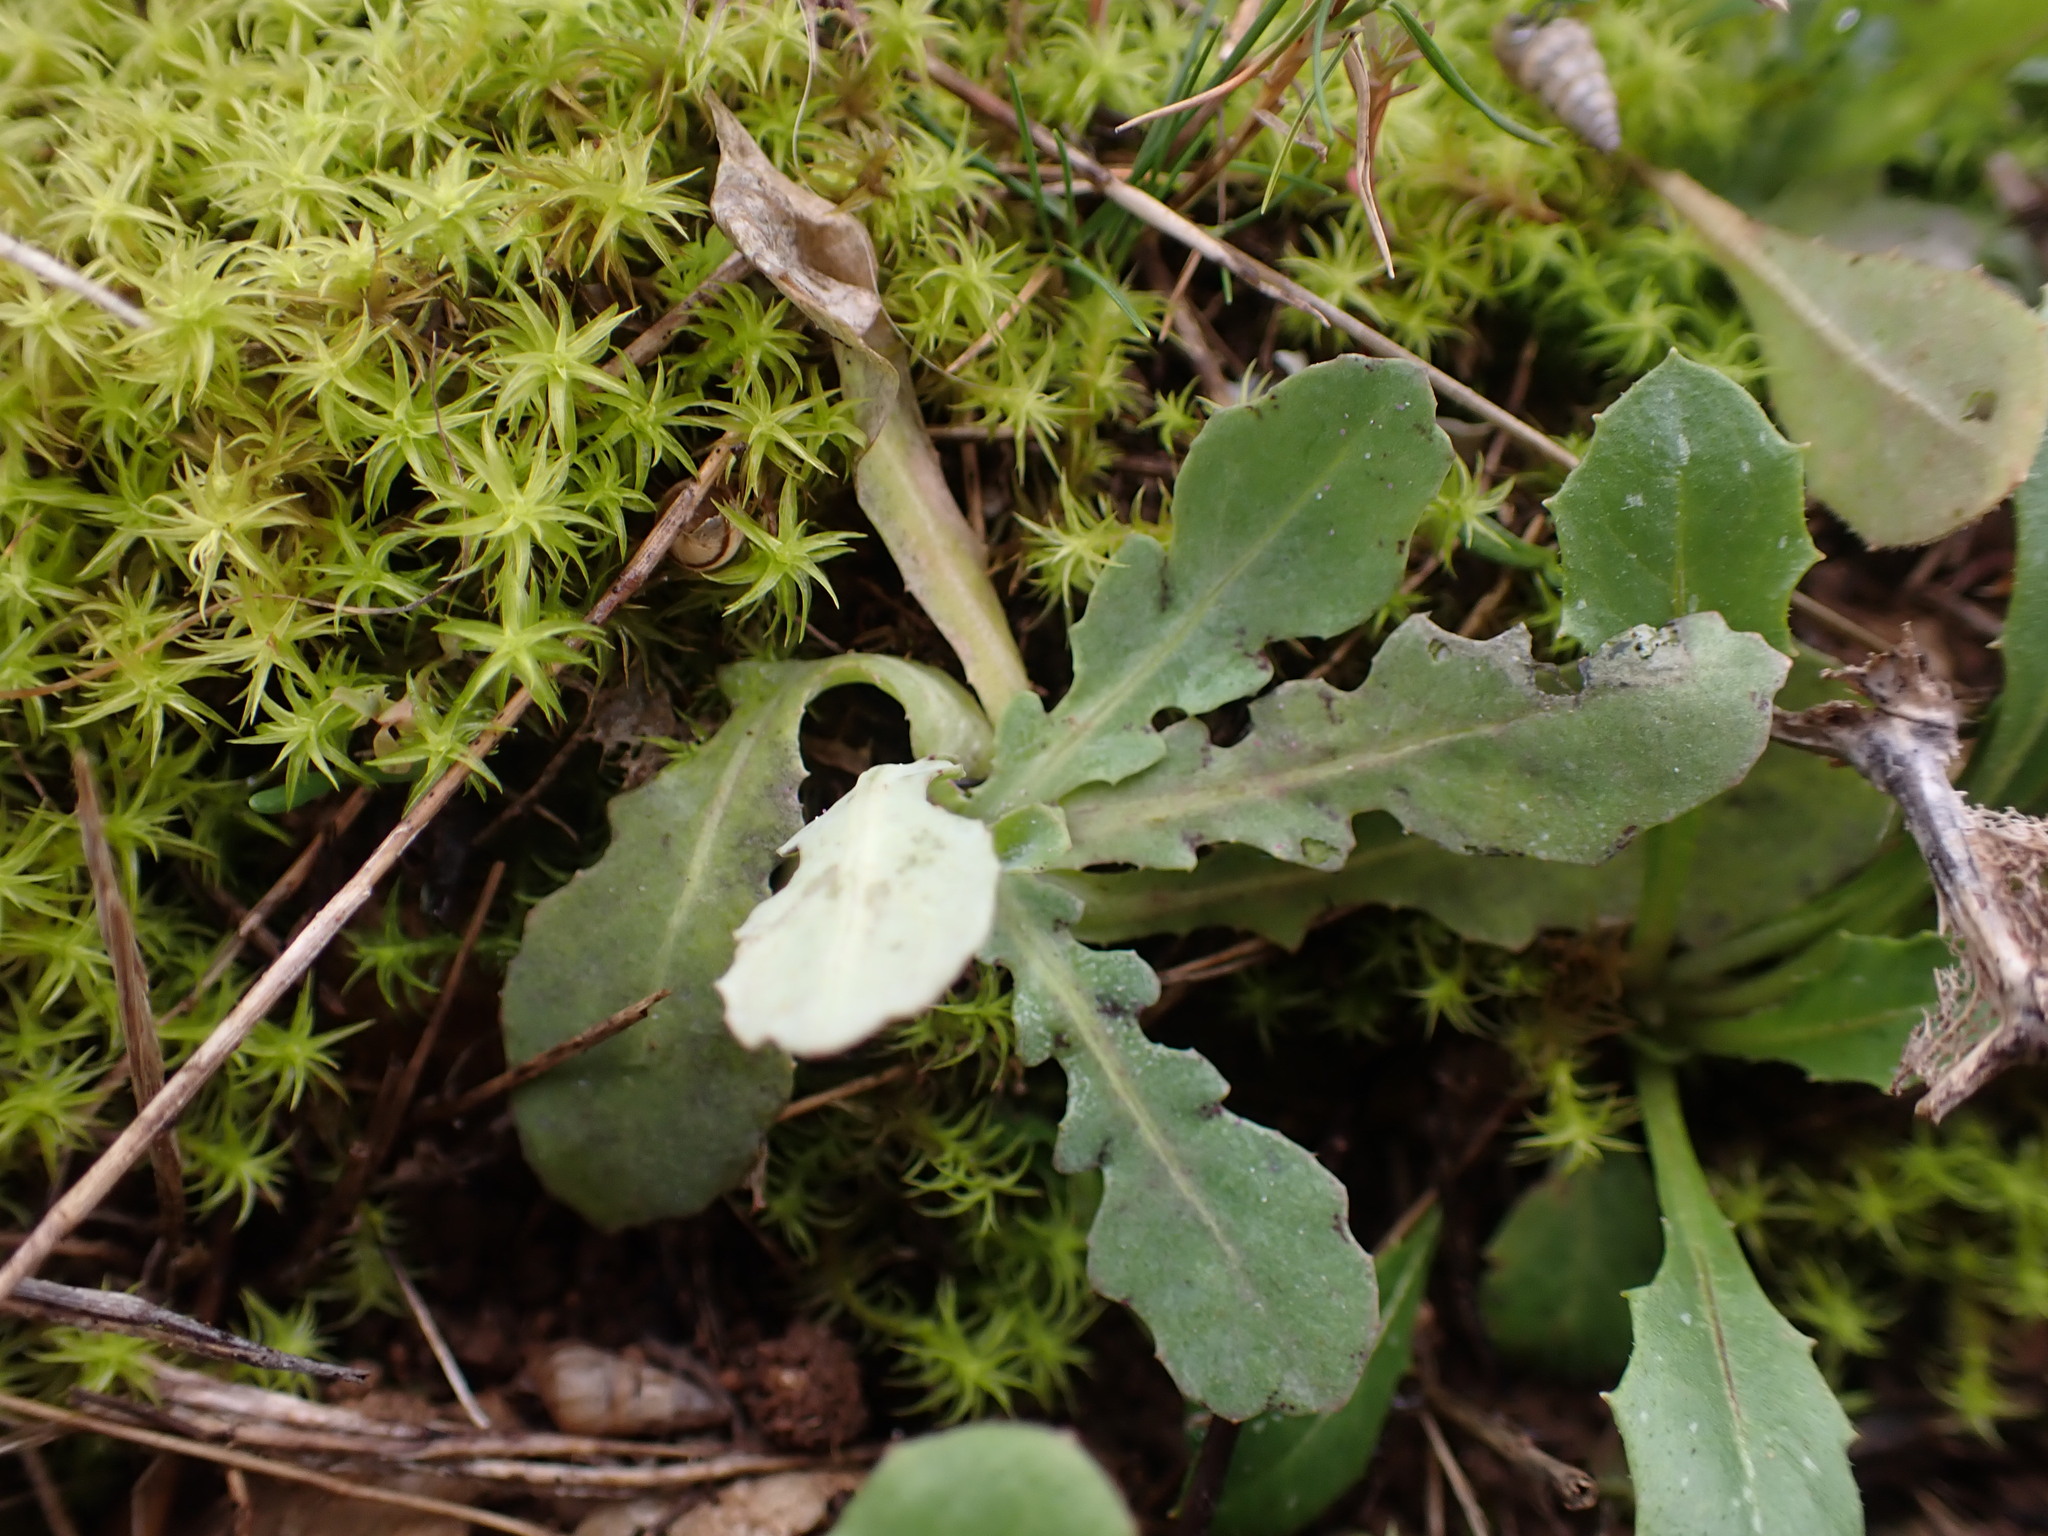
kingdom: Plantae
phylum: Tracheophyta
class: Magnoliopsida
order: Asterales
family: Asteraceae
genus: Reichardia
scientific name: Reichardia picroides
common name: Common brighteyes
